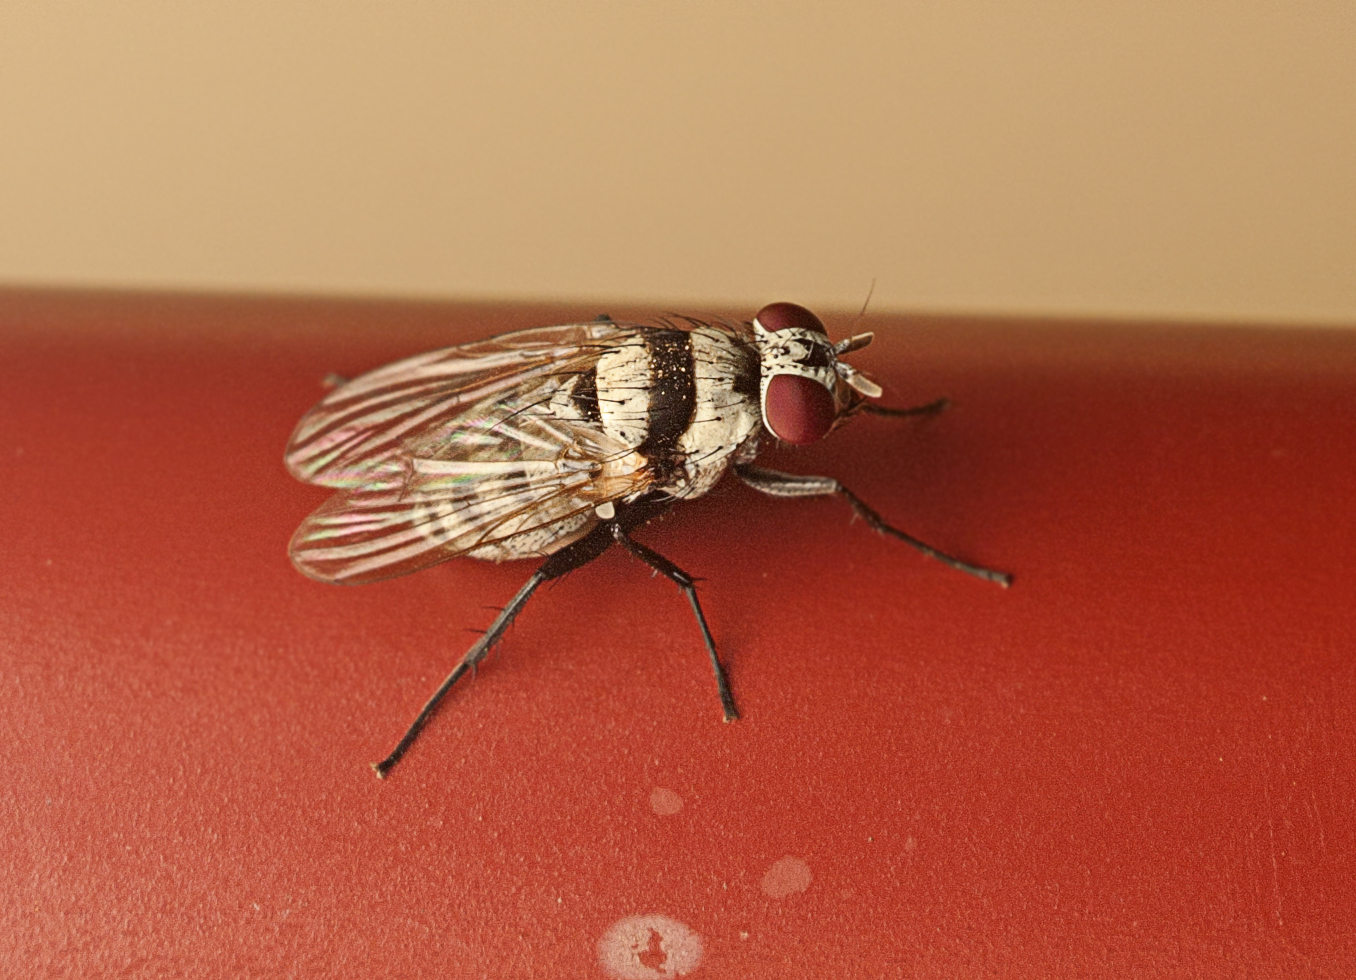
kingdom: Animalia
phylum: Arthropoda
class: Insecta
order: Diptera
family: Anthomyiidae
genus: Anthomyia
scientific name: Anthomyia silvestris
